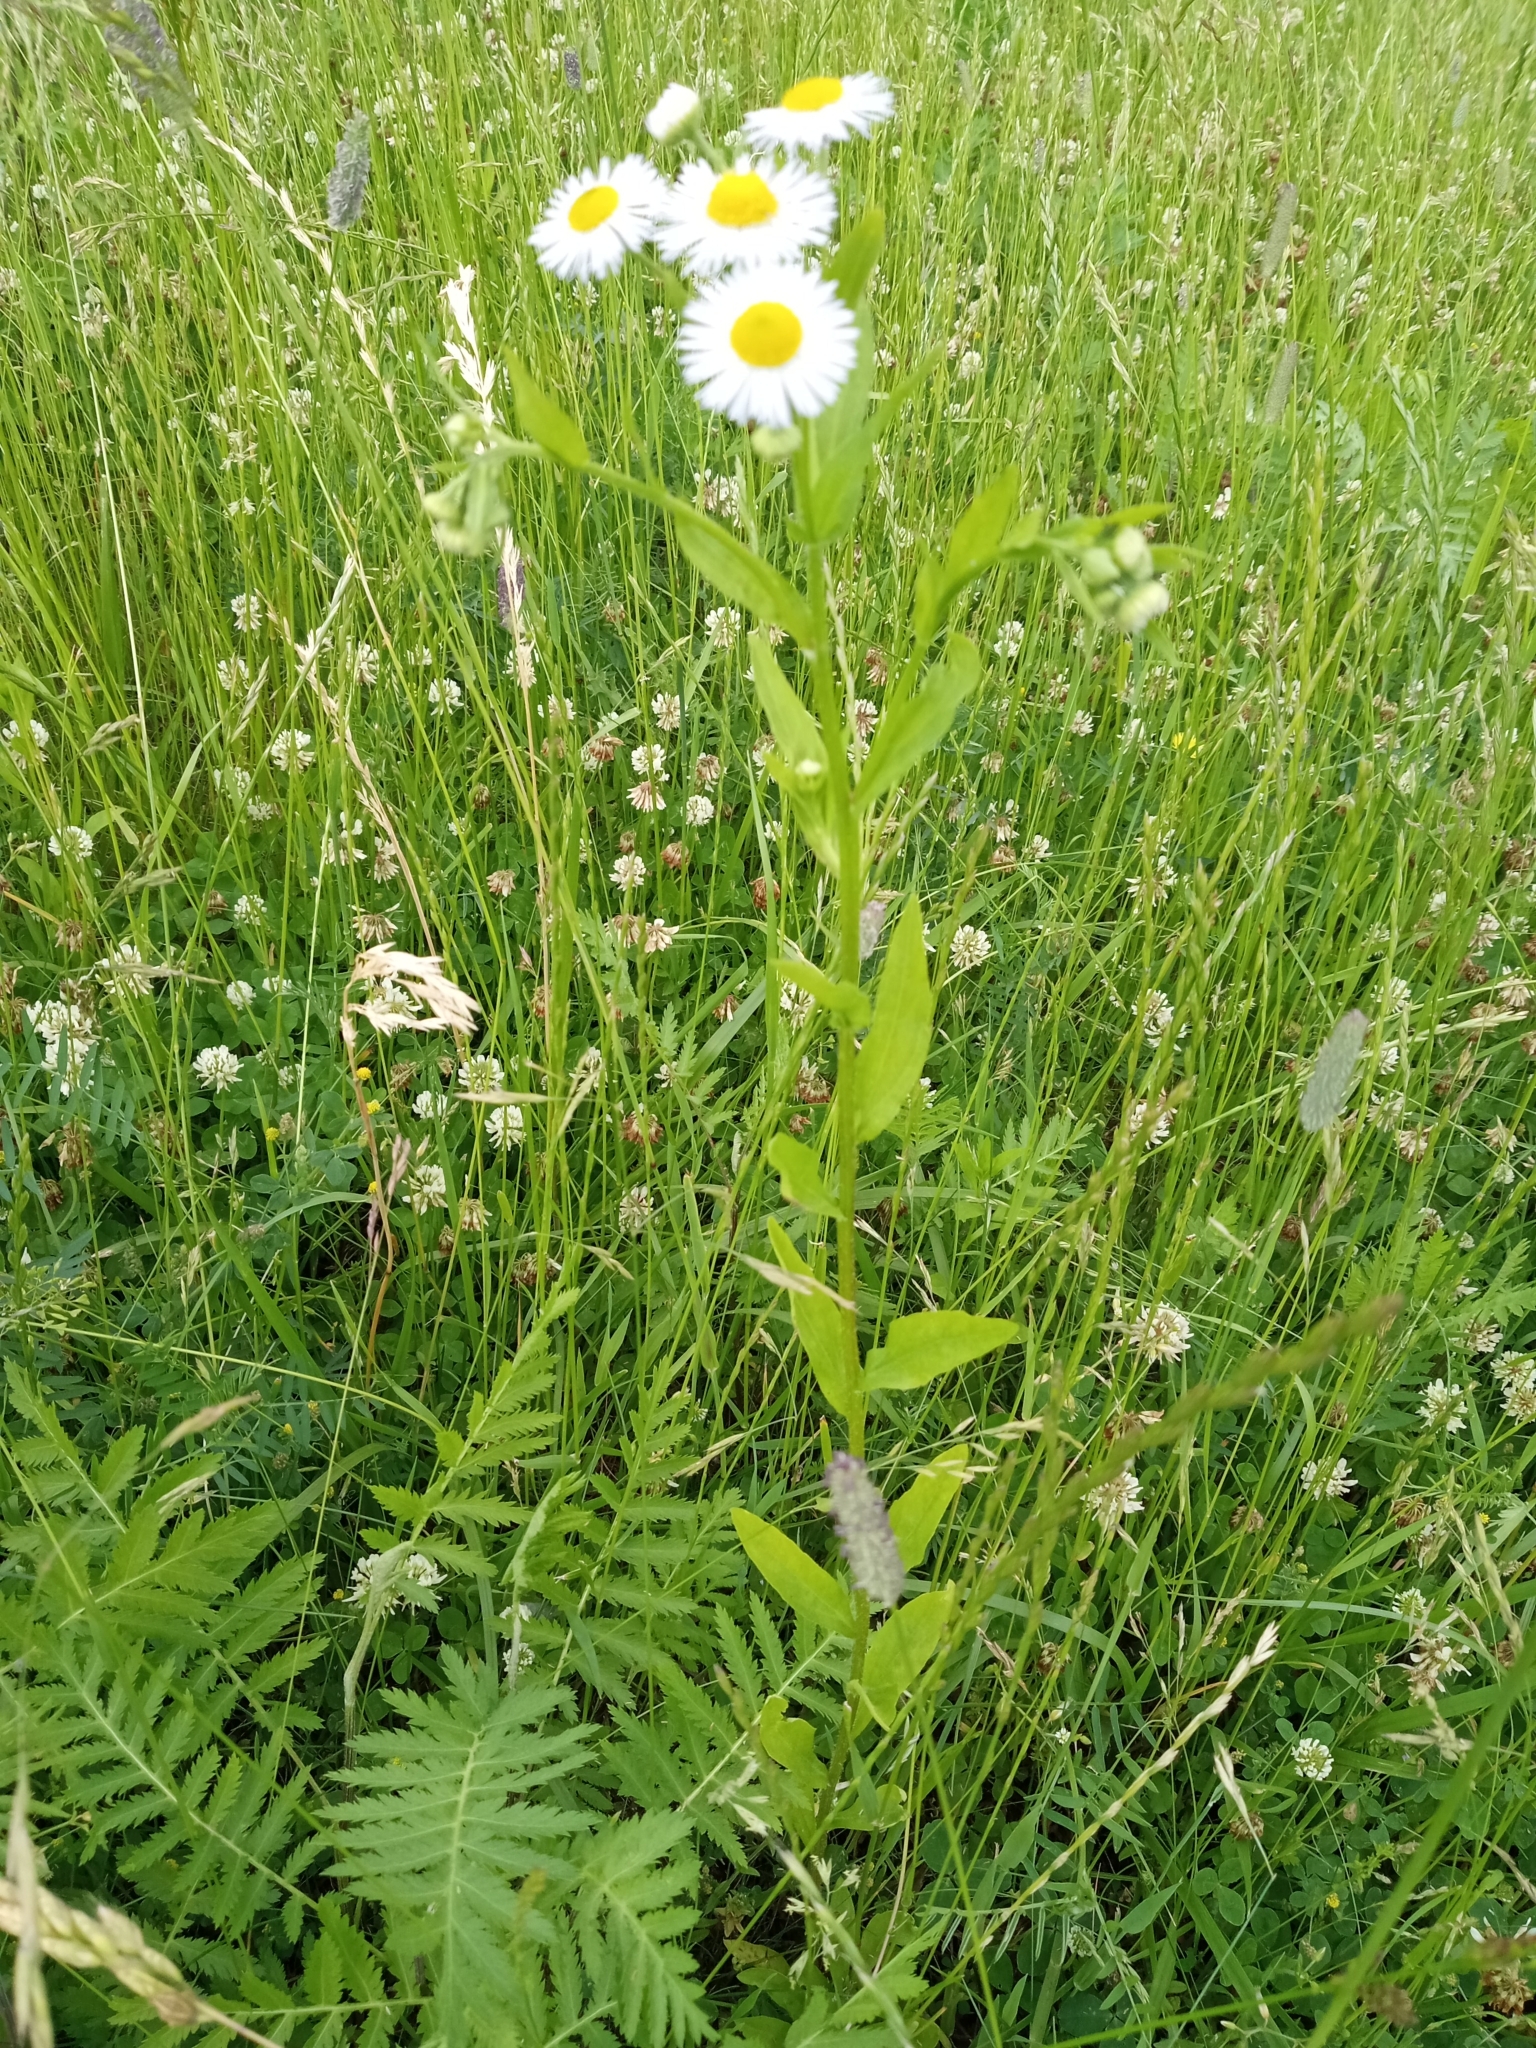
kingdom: Plantae
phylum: Tracheophyta
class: Magnoliopsida
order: Asterales
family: Asteraceae
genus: Erigeron
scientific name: Erigeron annuus
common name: Tall fleabane
